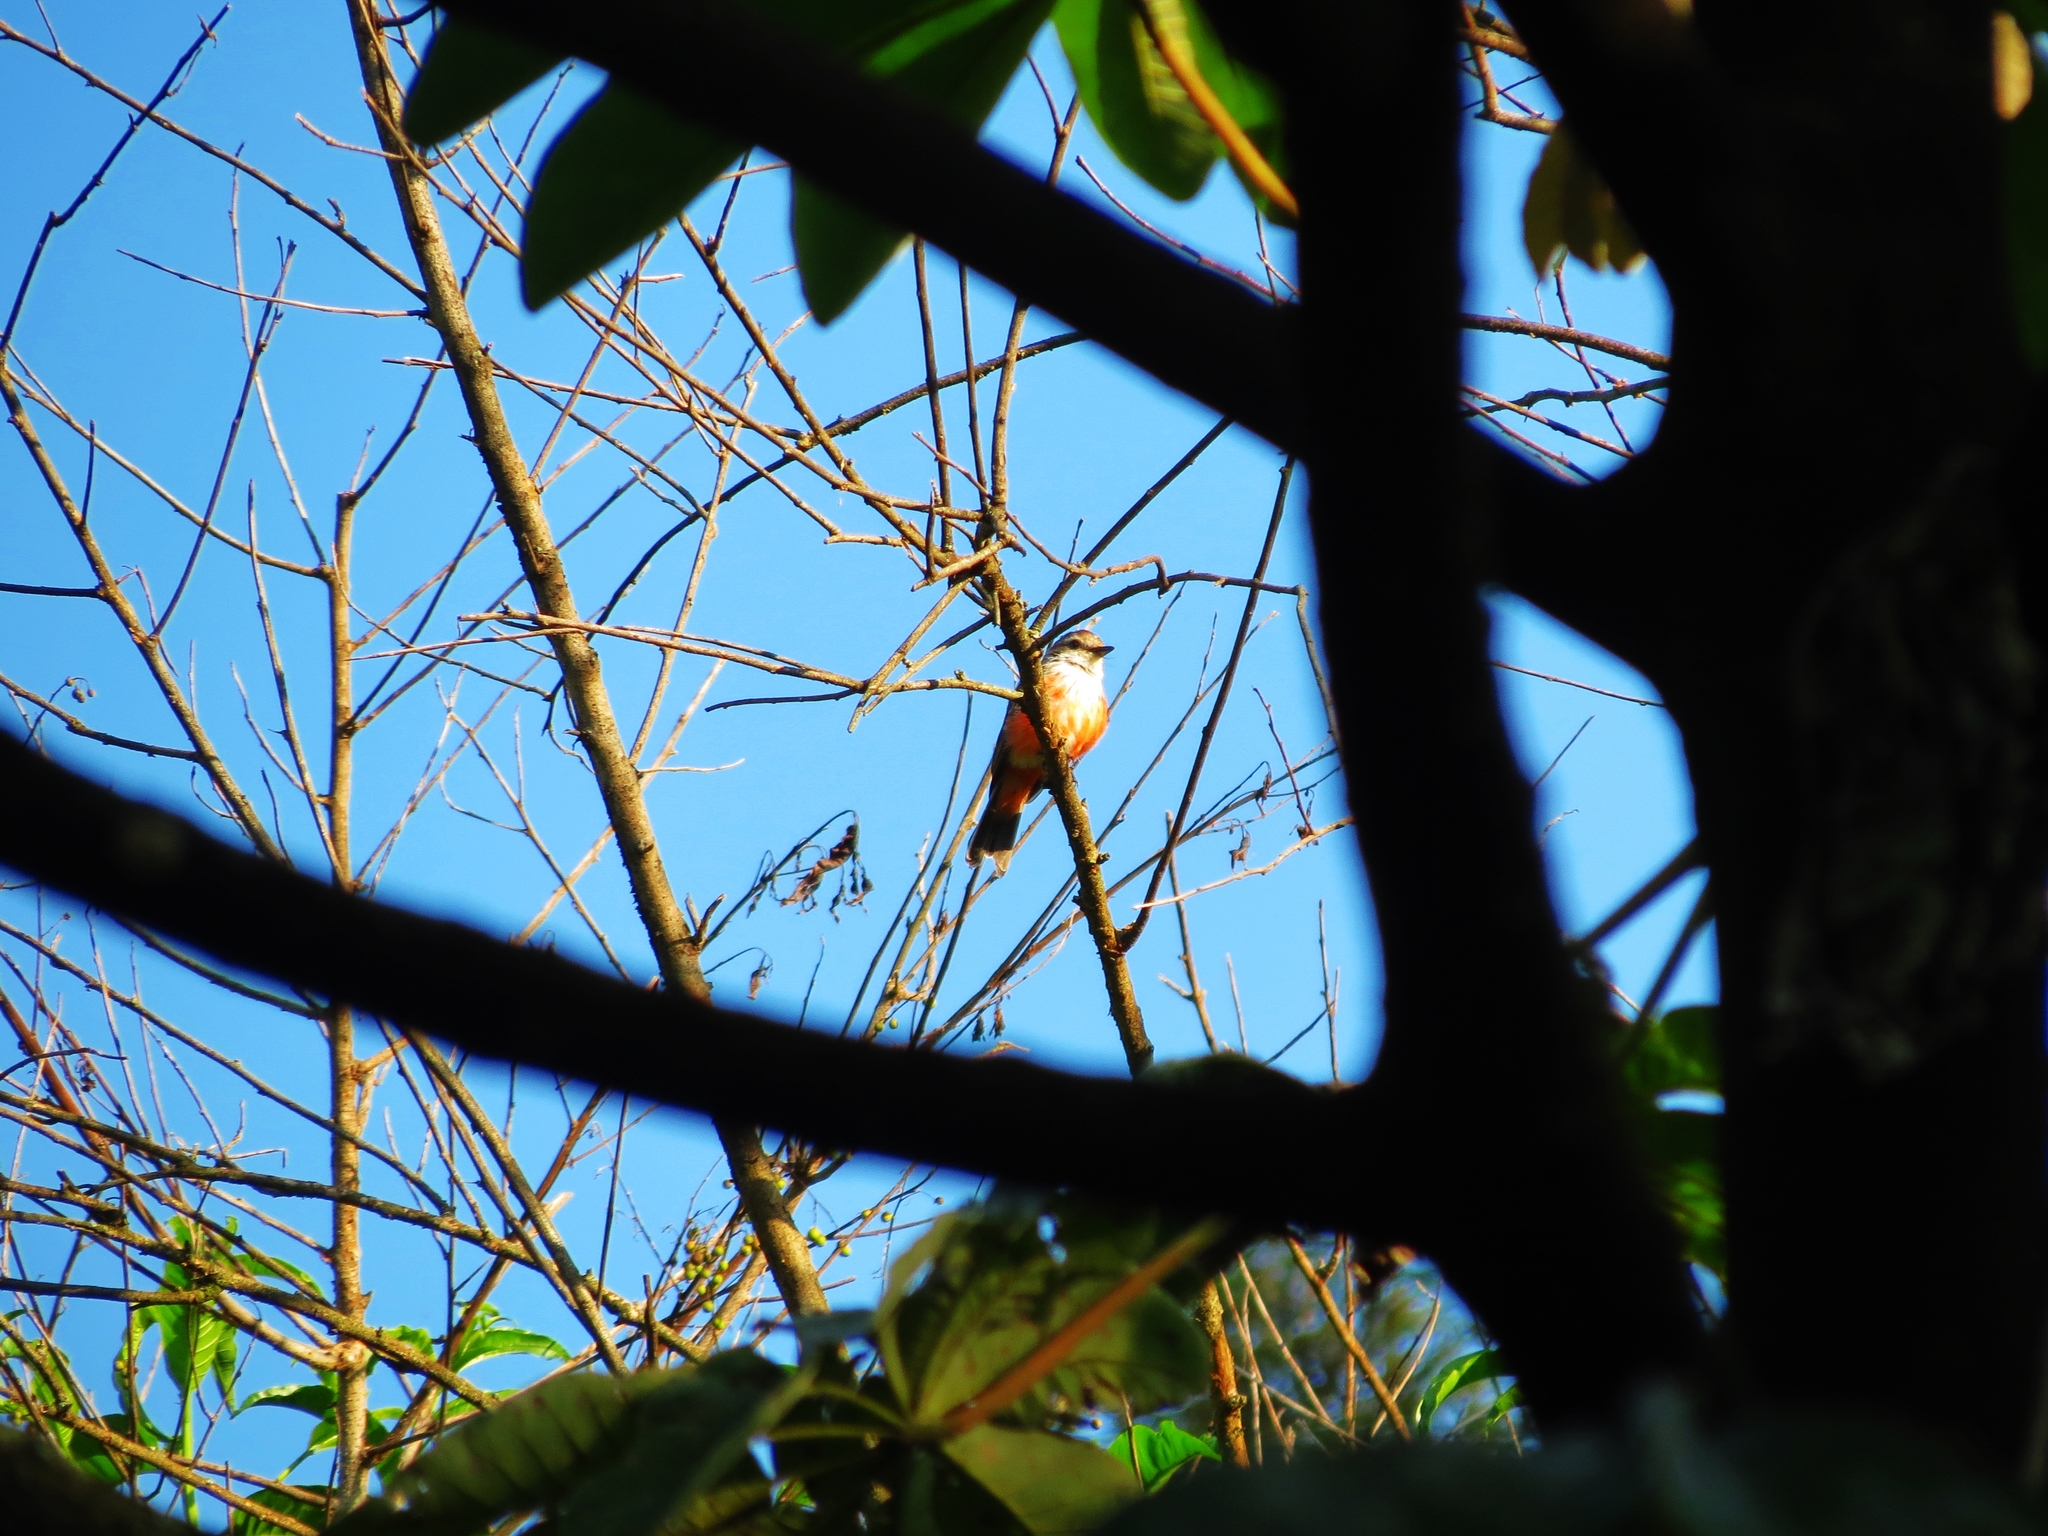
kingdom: Animalia
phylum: Chordata
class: Aves
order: Passeriformes
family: Tyrannidae
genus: Pyrocephalus
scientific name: Pyrocephalus rubinus
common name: Vermilion flycatcher
